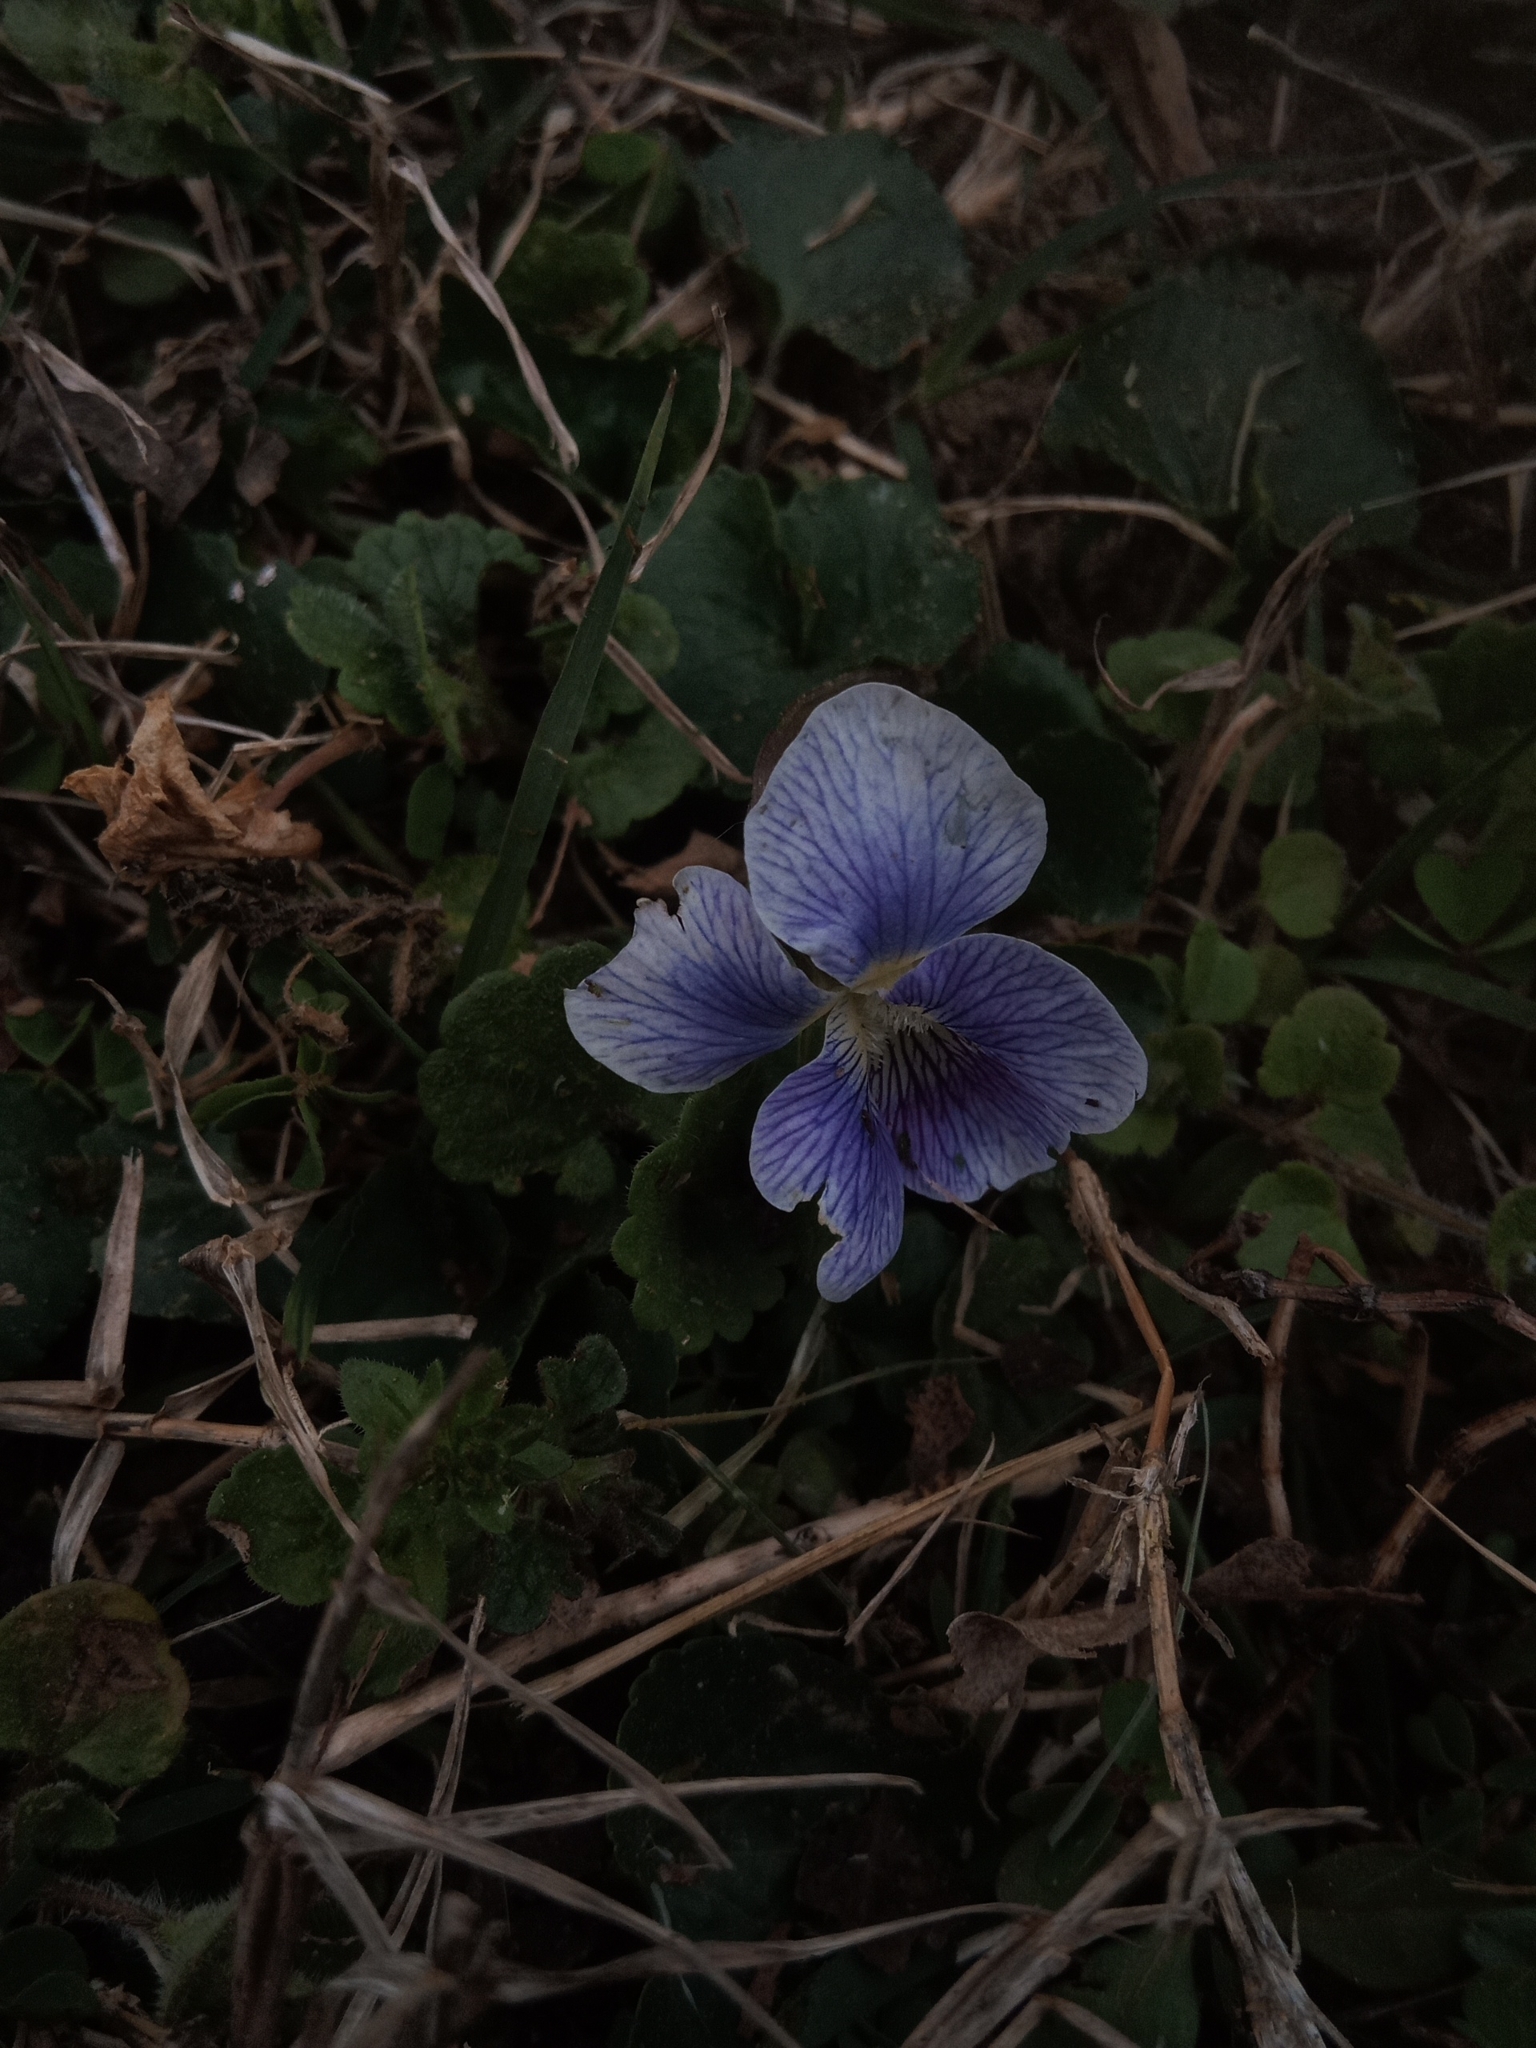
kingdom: Plantae
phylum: Tracheophyta
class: Magnoliopsida
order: Malpighiales
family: Violaceae
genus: Viola
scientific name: Viola sororia
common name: Dooryard violet
